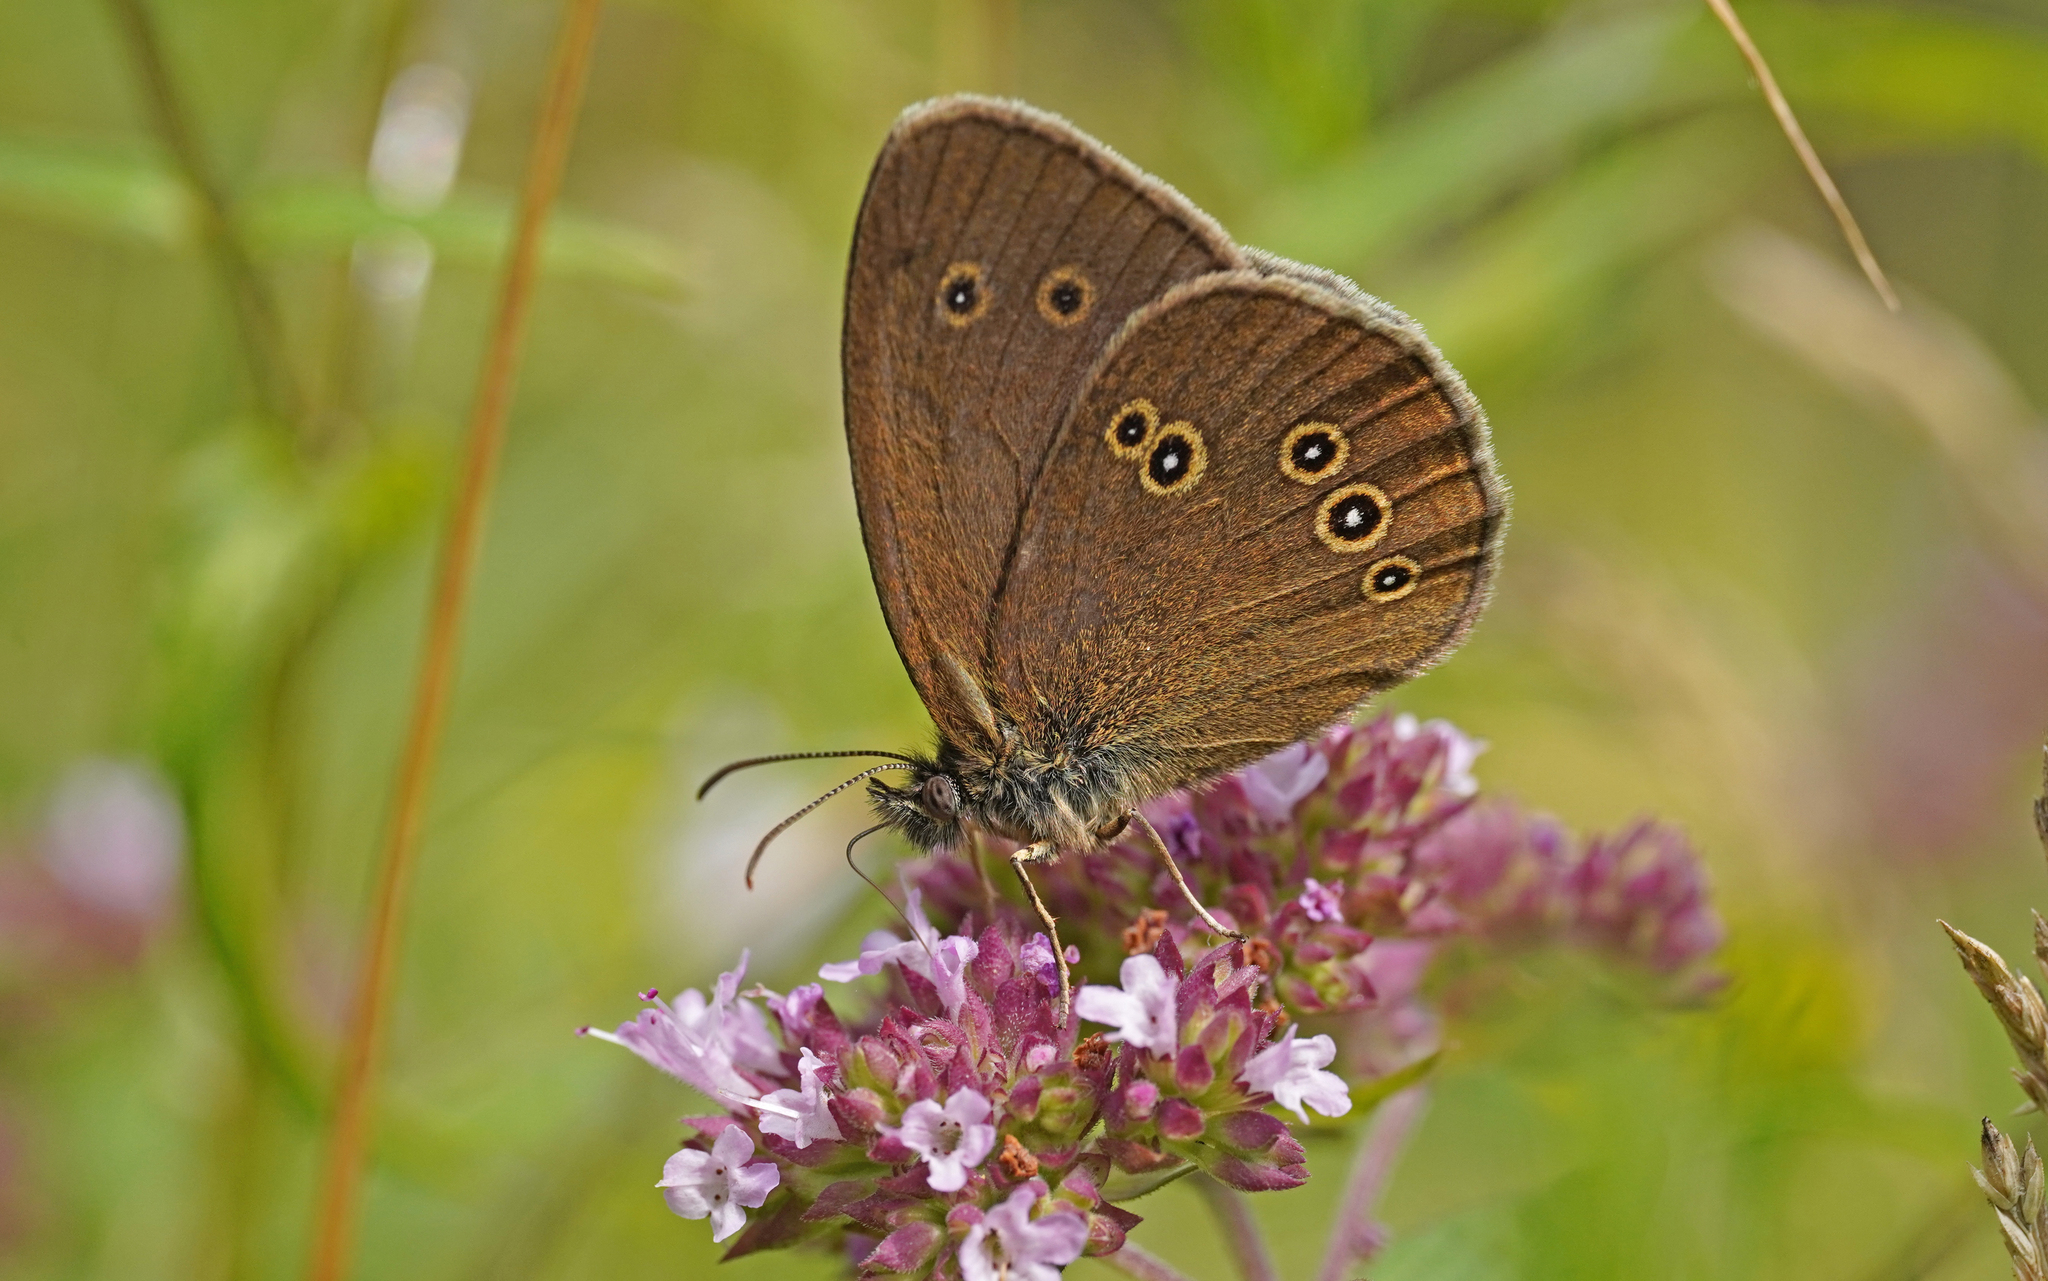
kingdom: Animalia
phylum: Arthropoda
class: Insecta
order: Lepidoptera
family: Nymphalidae
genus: Aphantopus
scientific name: Aphantopus hyperantus
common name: Ringlet
